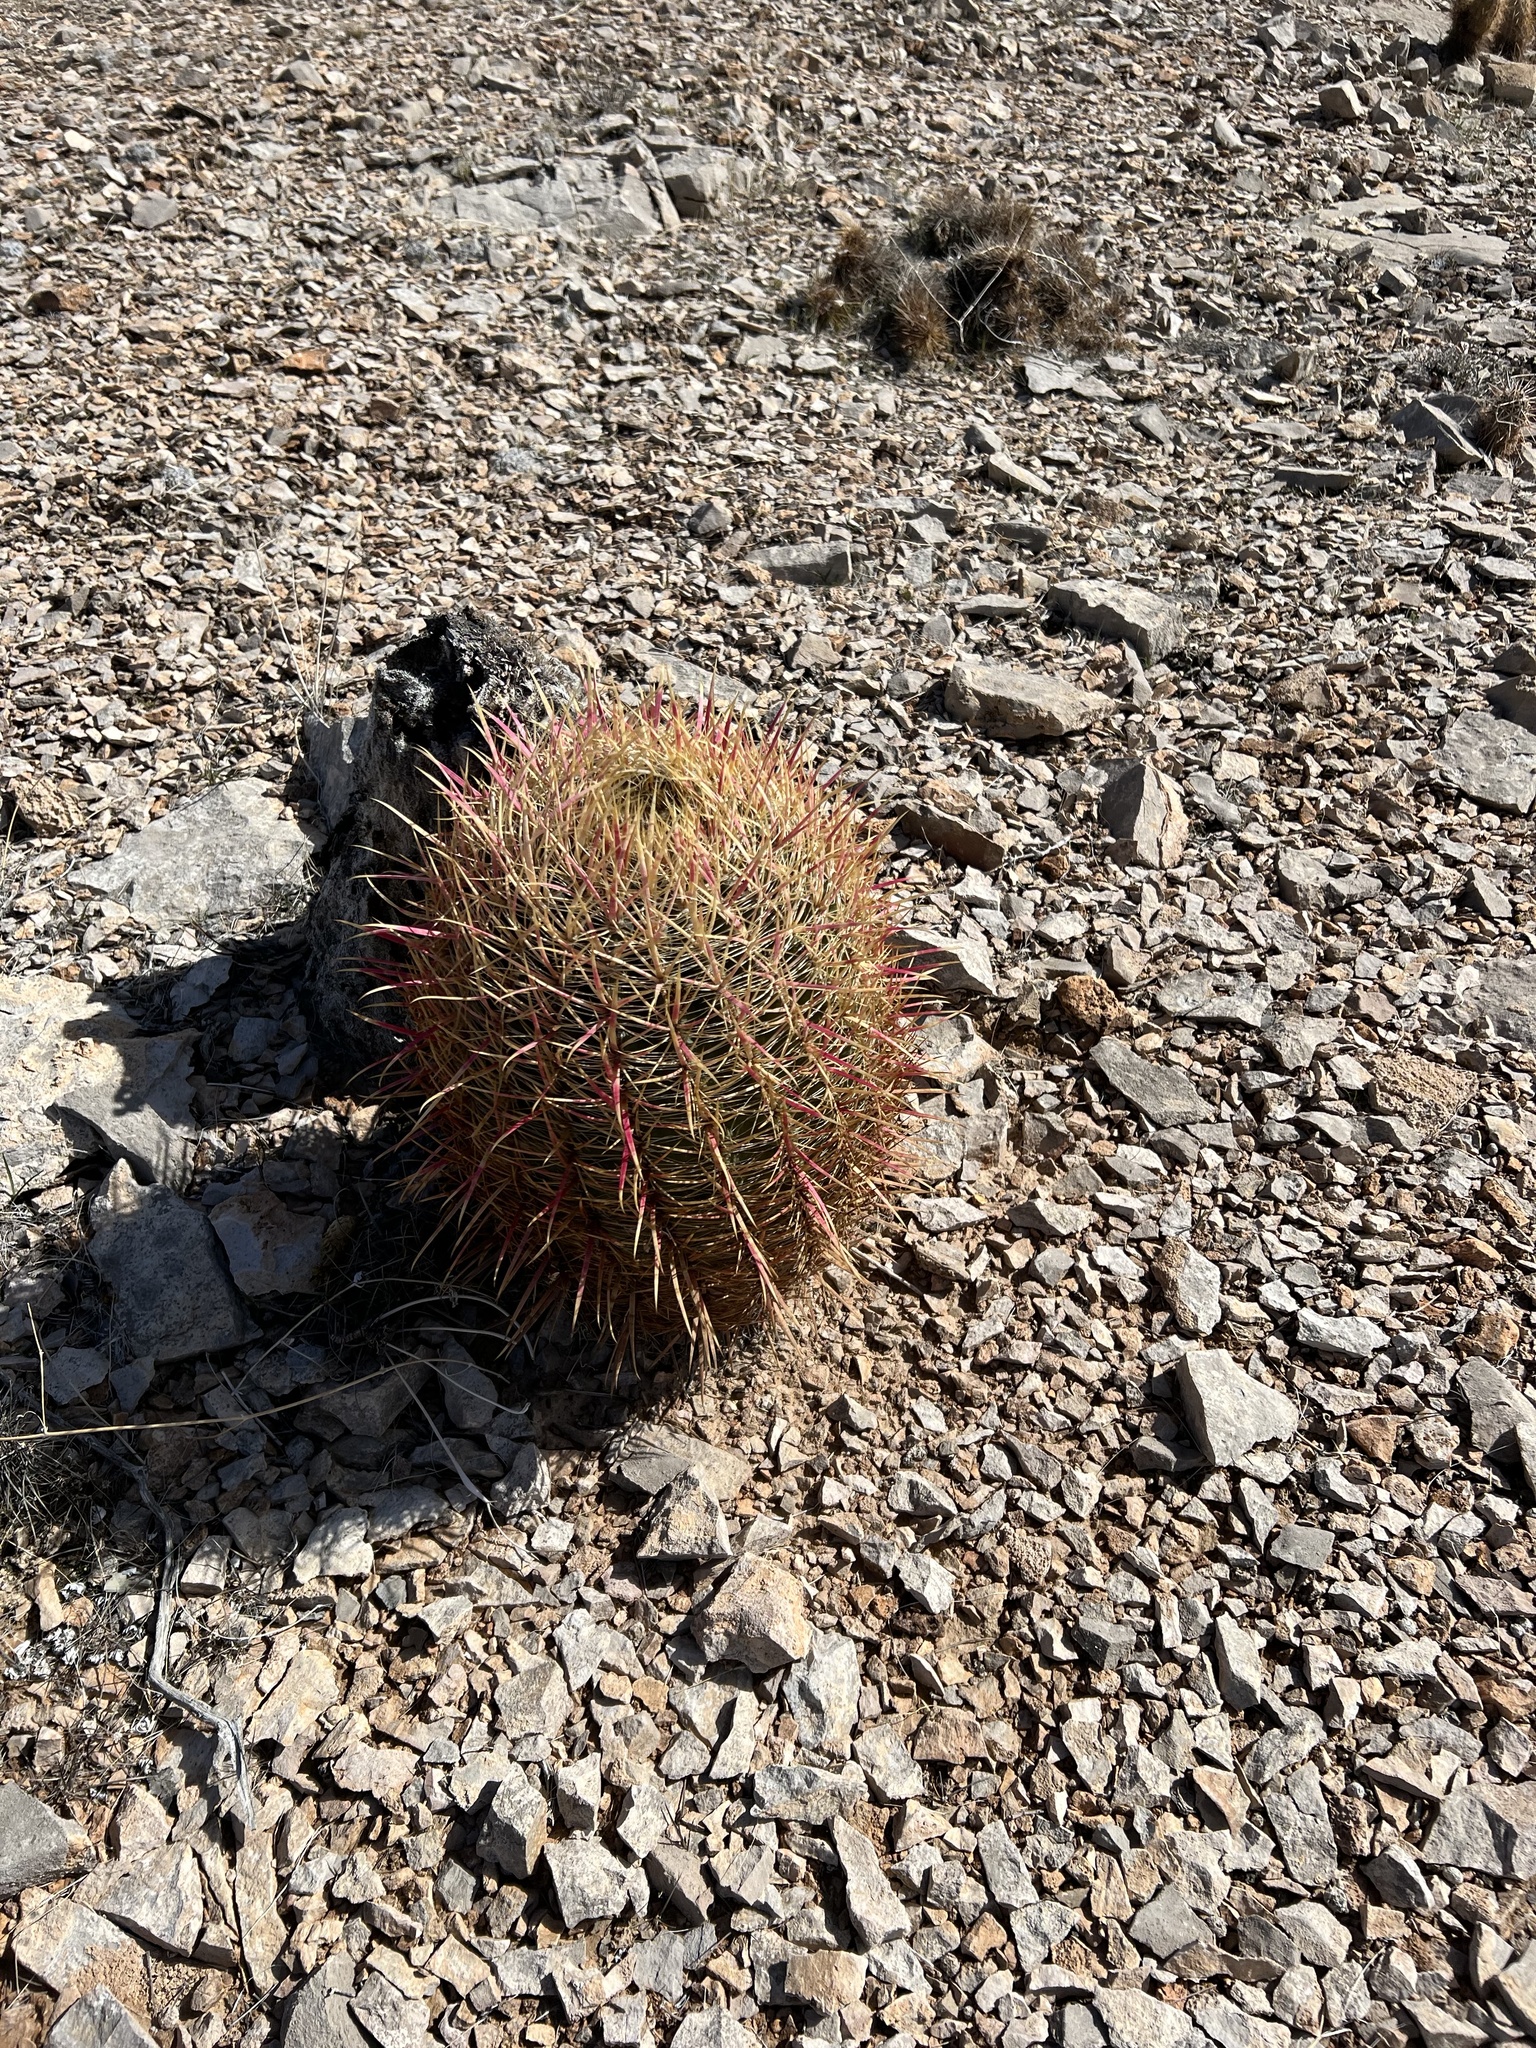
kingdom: Plantae
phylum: Tracheophyta
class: Magnoliopsida
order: Caryophyllales
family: Cactaceae
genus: Ferocactus
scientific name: Ferocactus cylindraceus
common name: California barrel cactus
